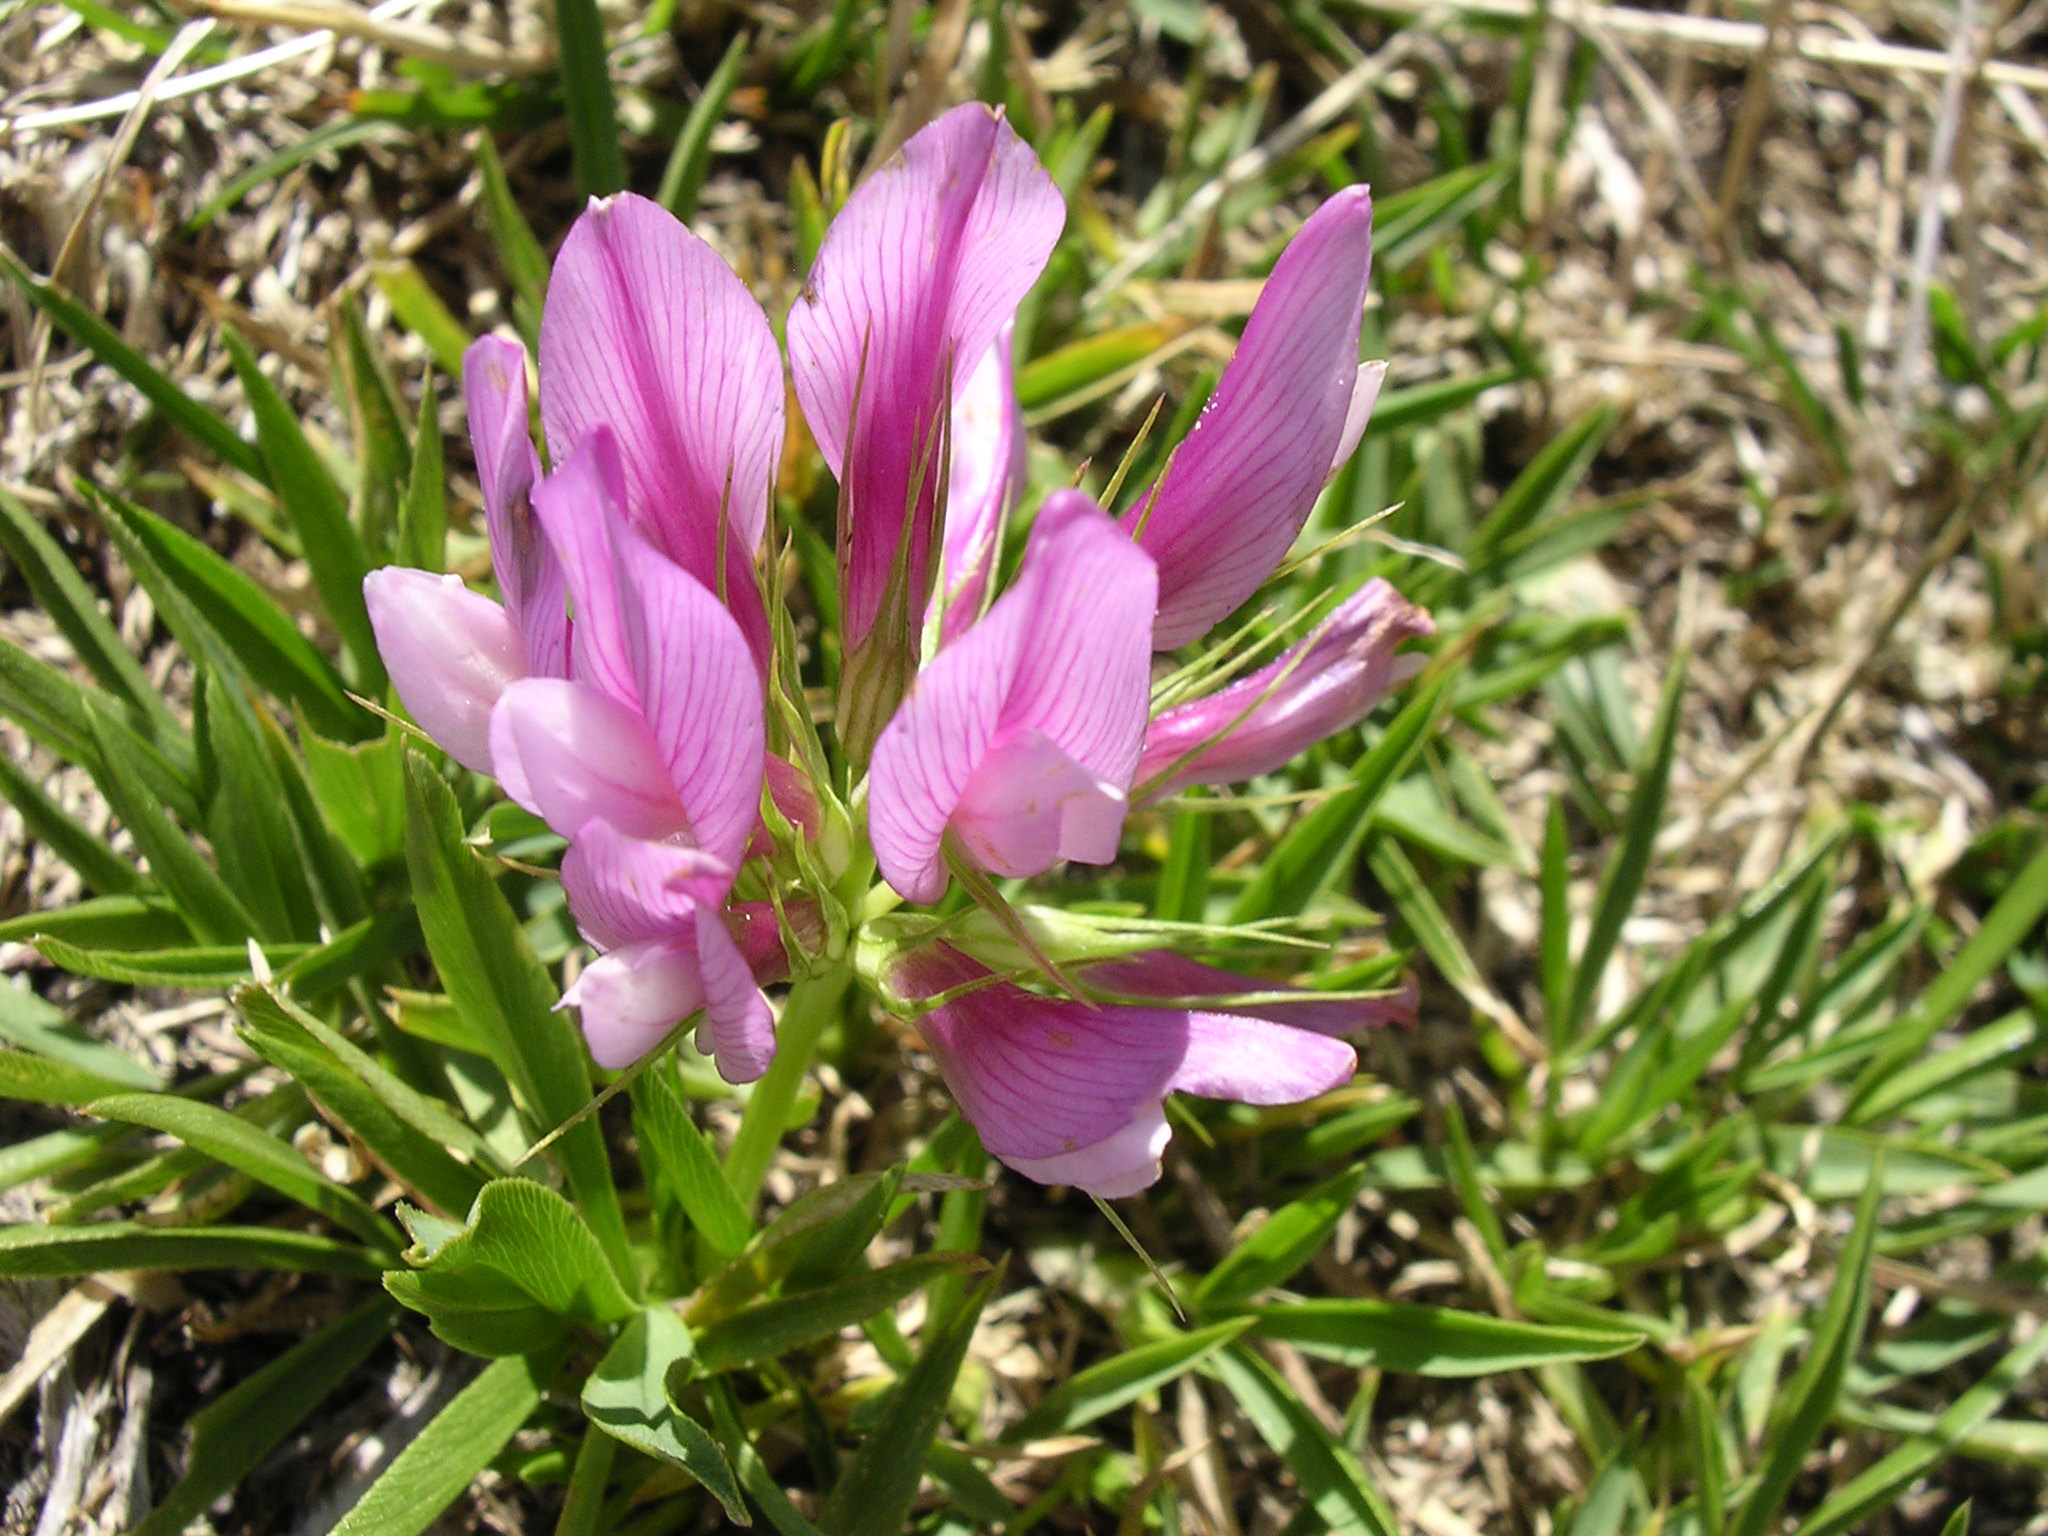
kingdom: Plantae
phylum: Tracheophyta
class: Magnoliopsida
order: Fabales
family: Fabaceae
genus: Trifolium
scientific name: Trifolium alpinum
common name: Alpine clover
